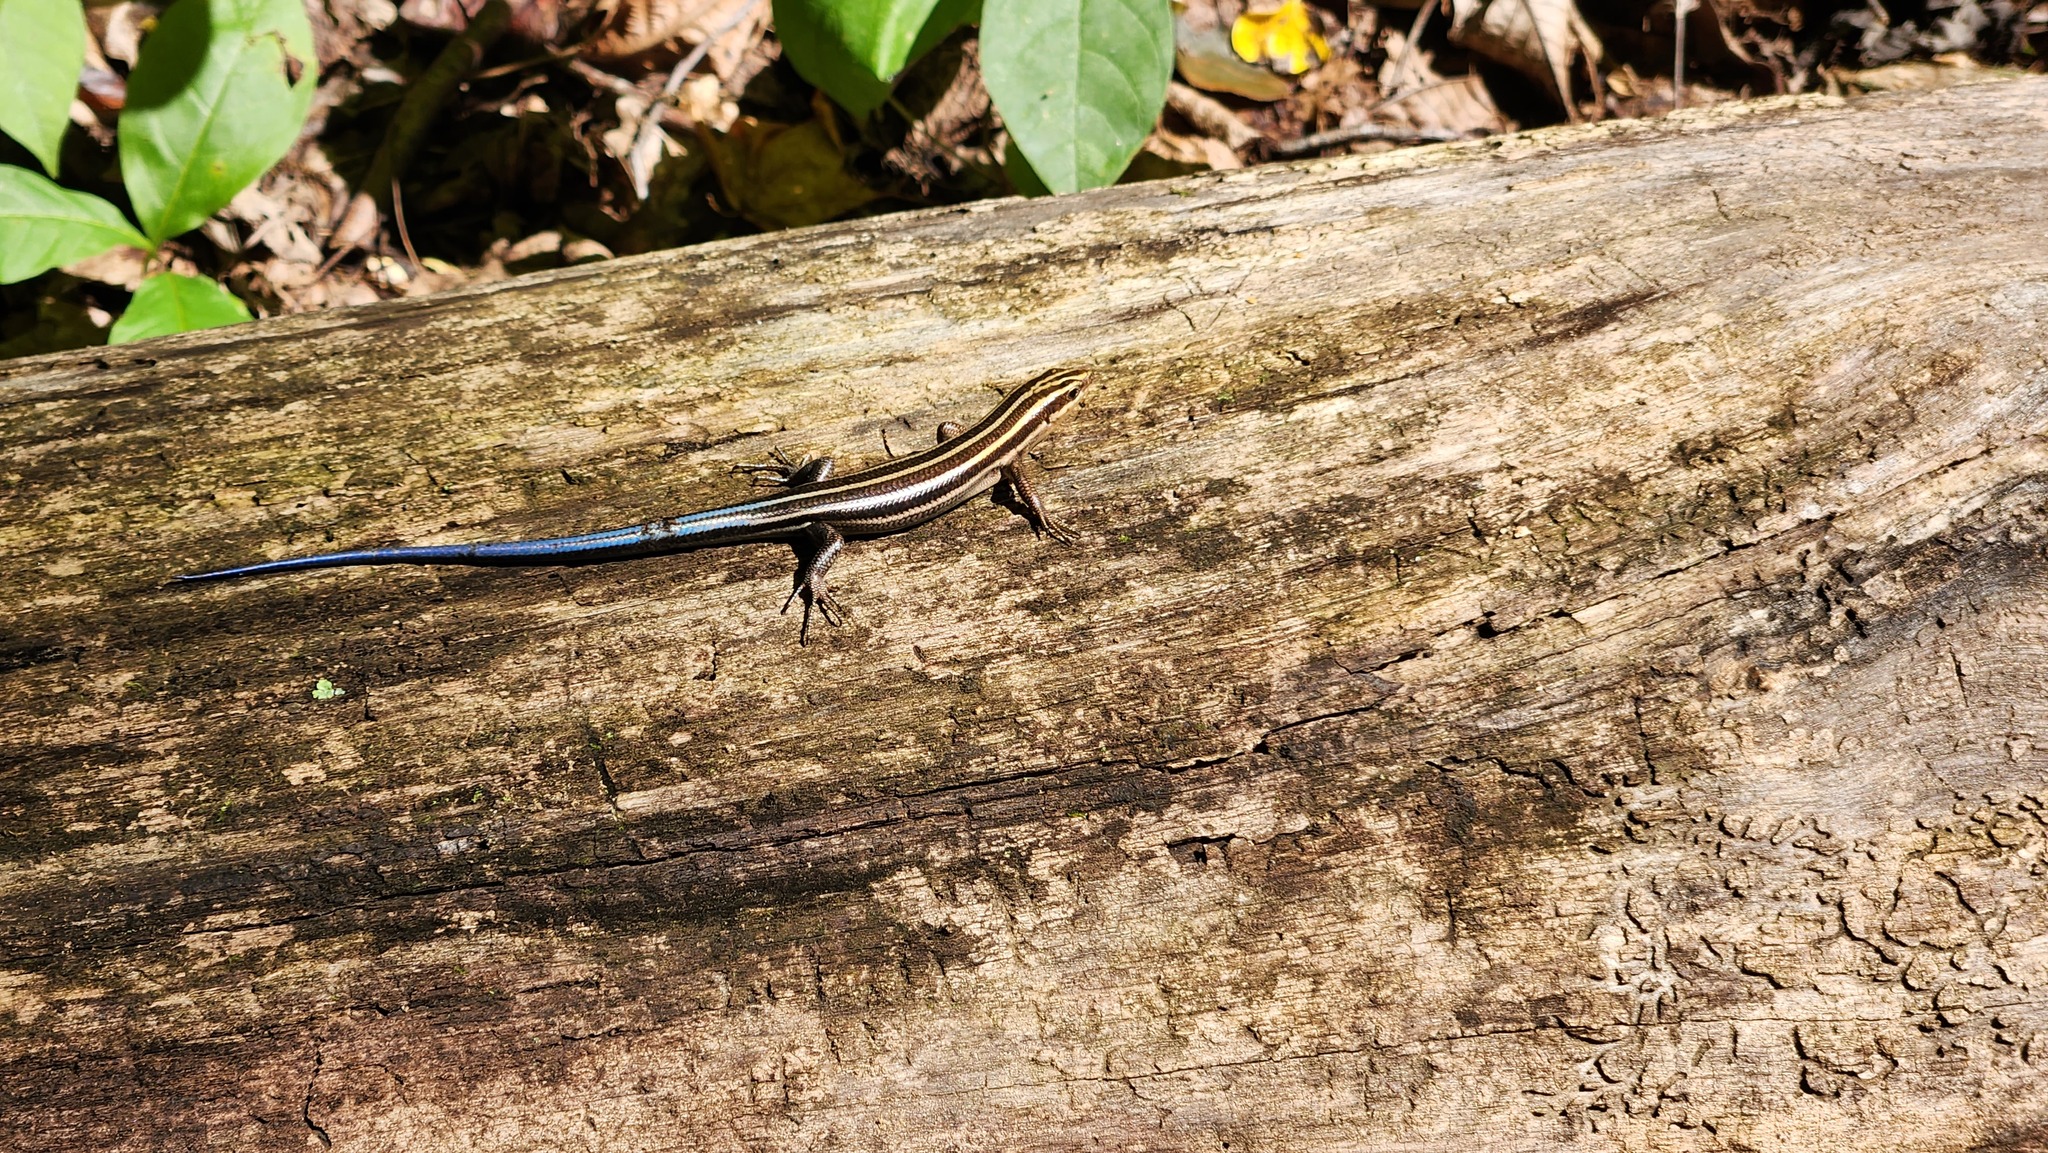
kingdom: Animalia
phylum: Chordata
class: Squamata
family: Scincidae
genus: Plestiodon
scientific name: Plestiodon fasciatus
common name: Five-lined skink
